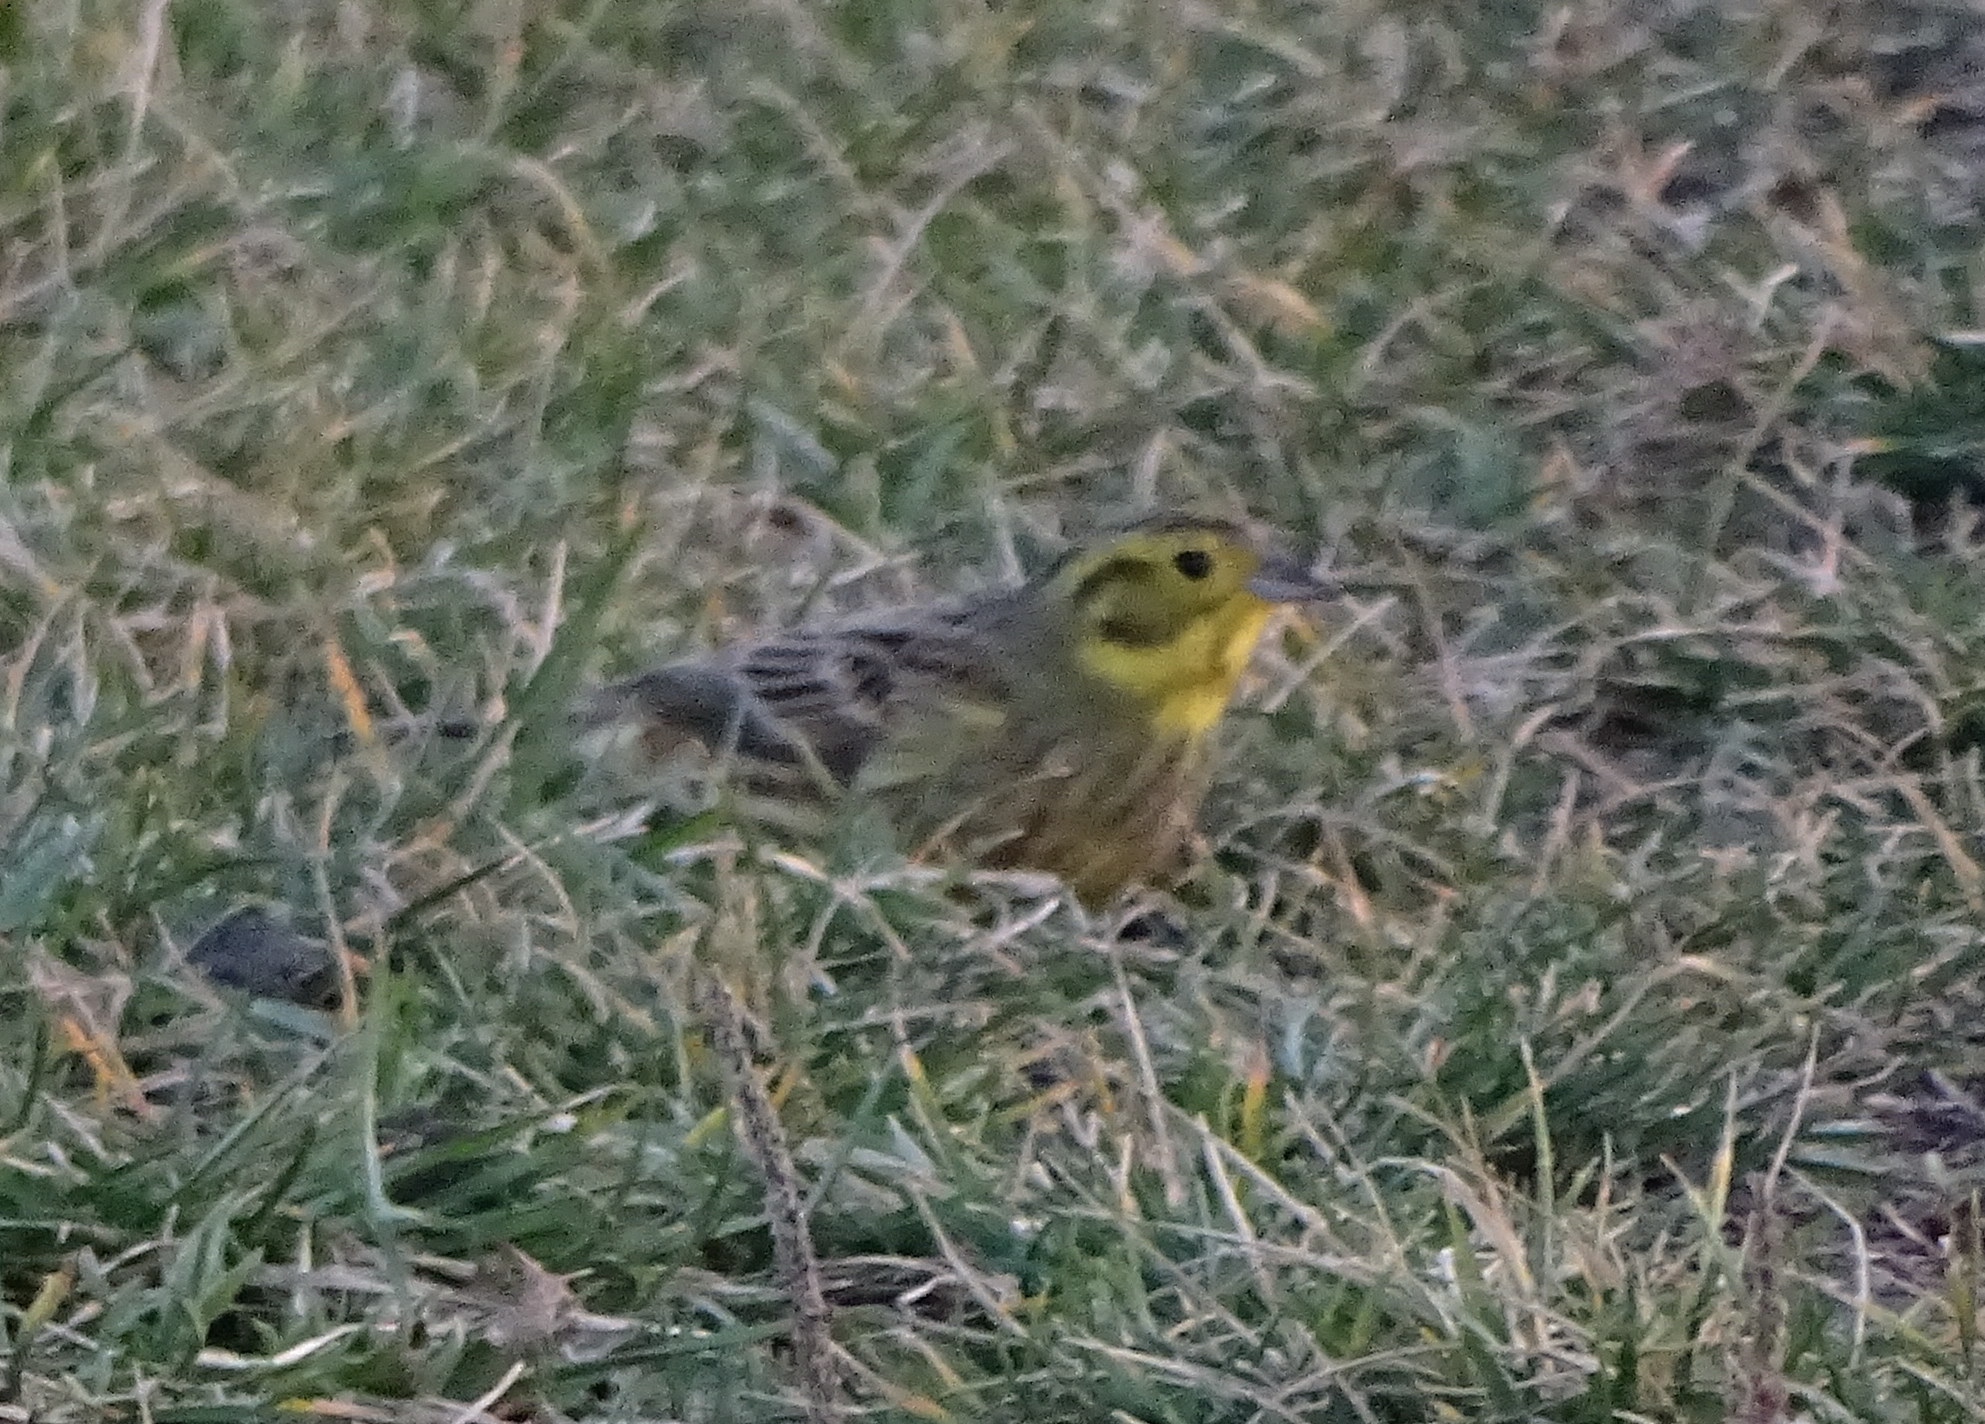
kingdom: Animalia
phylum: Chordata
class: Aves
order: Passeriformes
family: Emberizidae
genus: Emberiza
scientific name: Emberiza citrinella
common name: Yellowhammer
